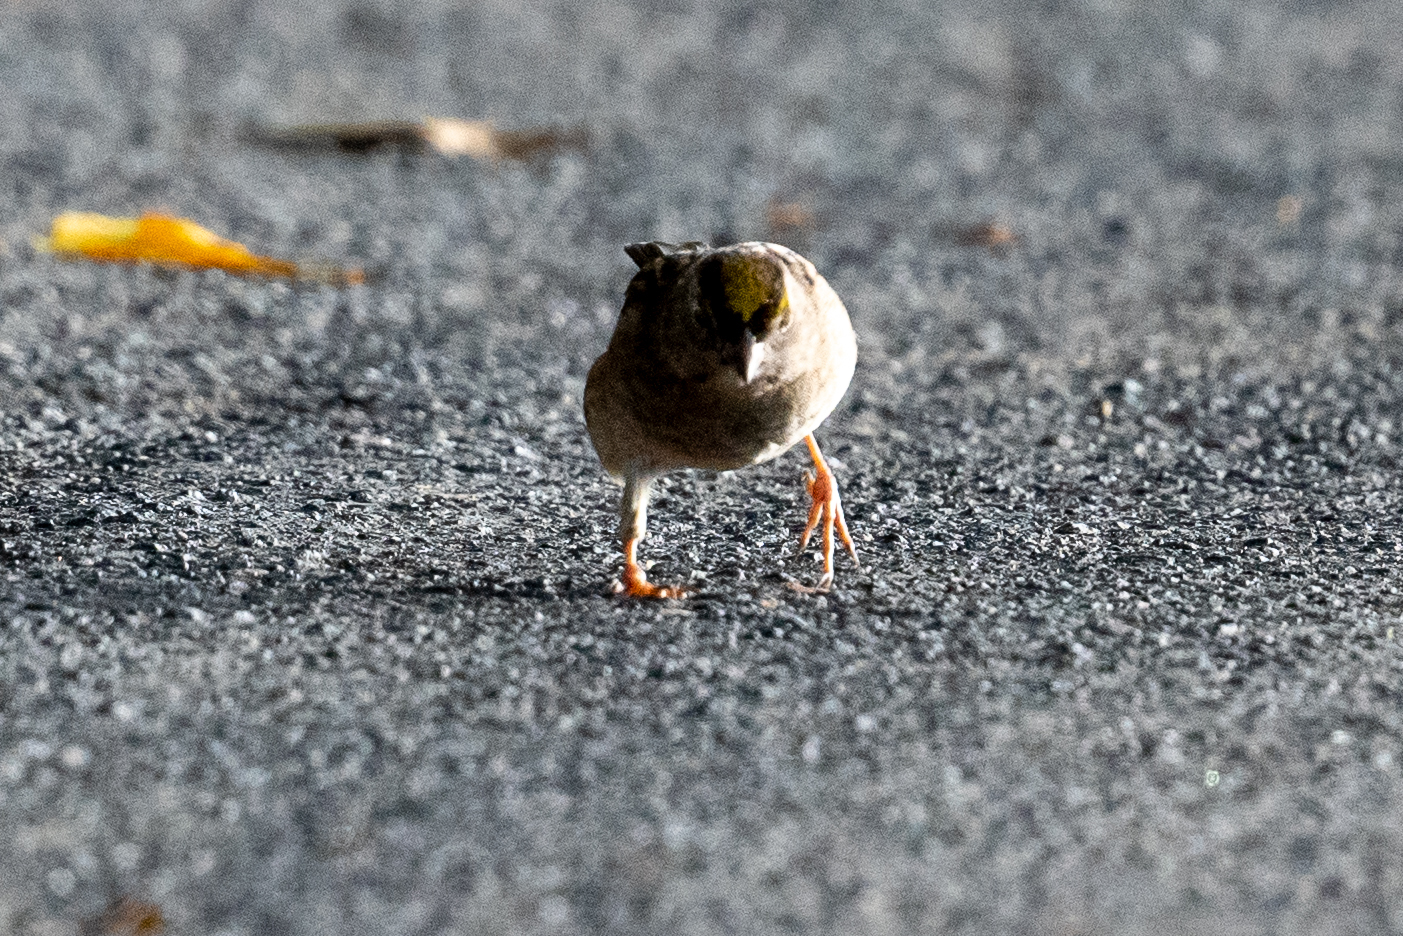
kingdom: Animalia
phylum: Chordata
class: Aves
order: Passeriformes
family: Passerellidae
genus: Zonotrichia
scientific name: Zonotrichia atricapilla
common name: Golden-crowned sparrow
